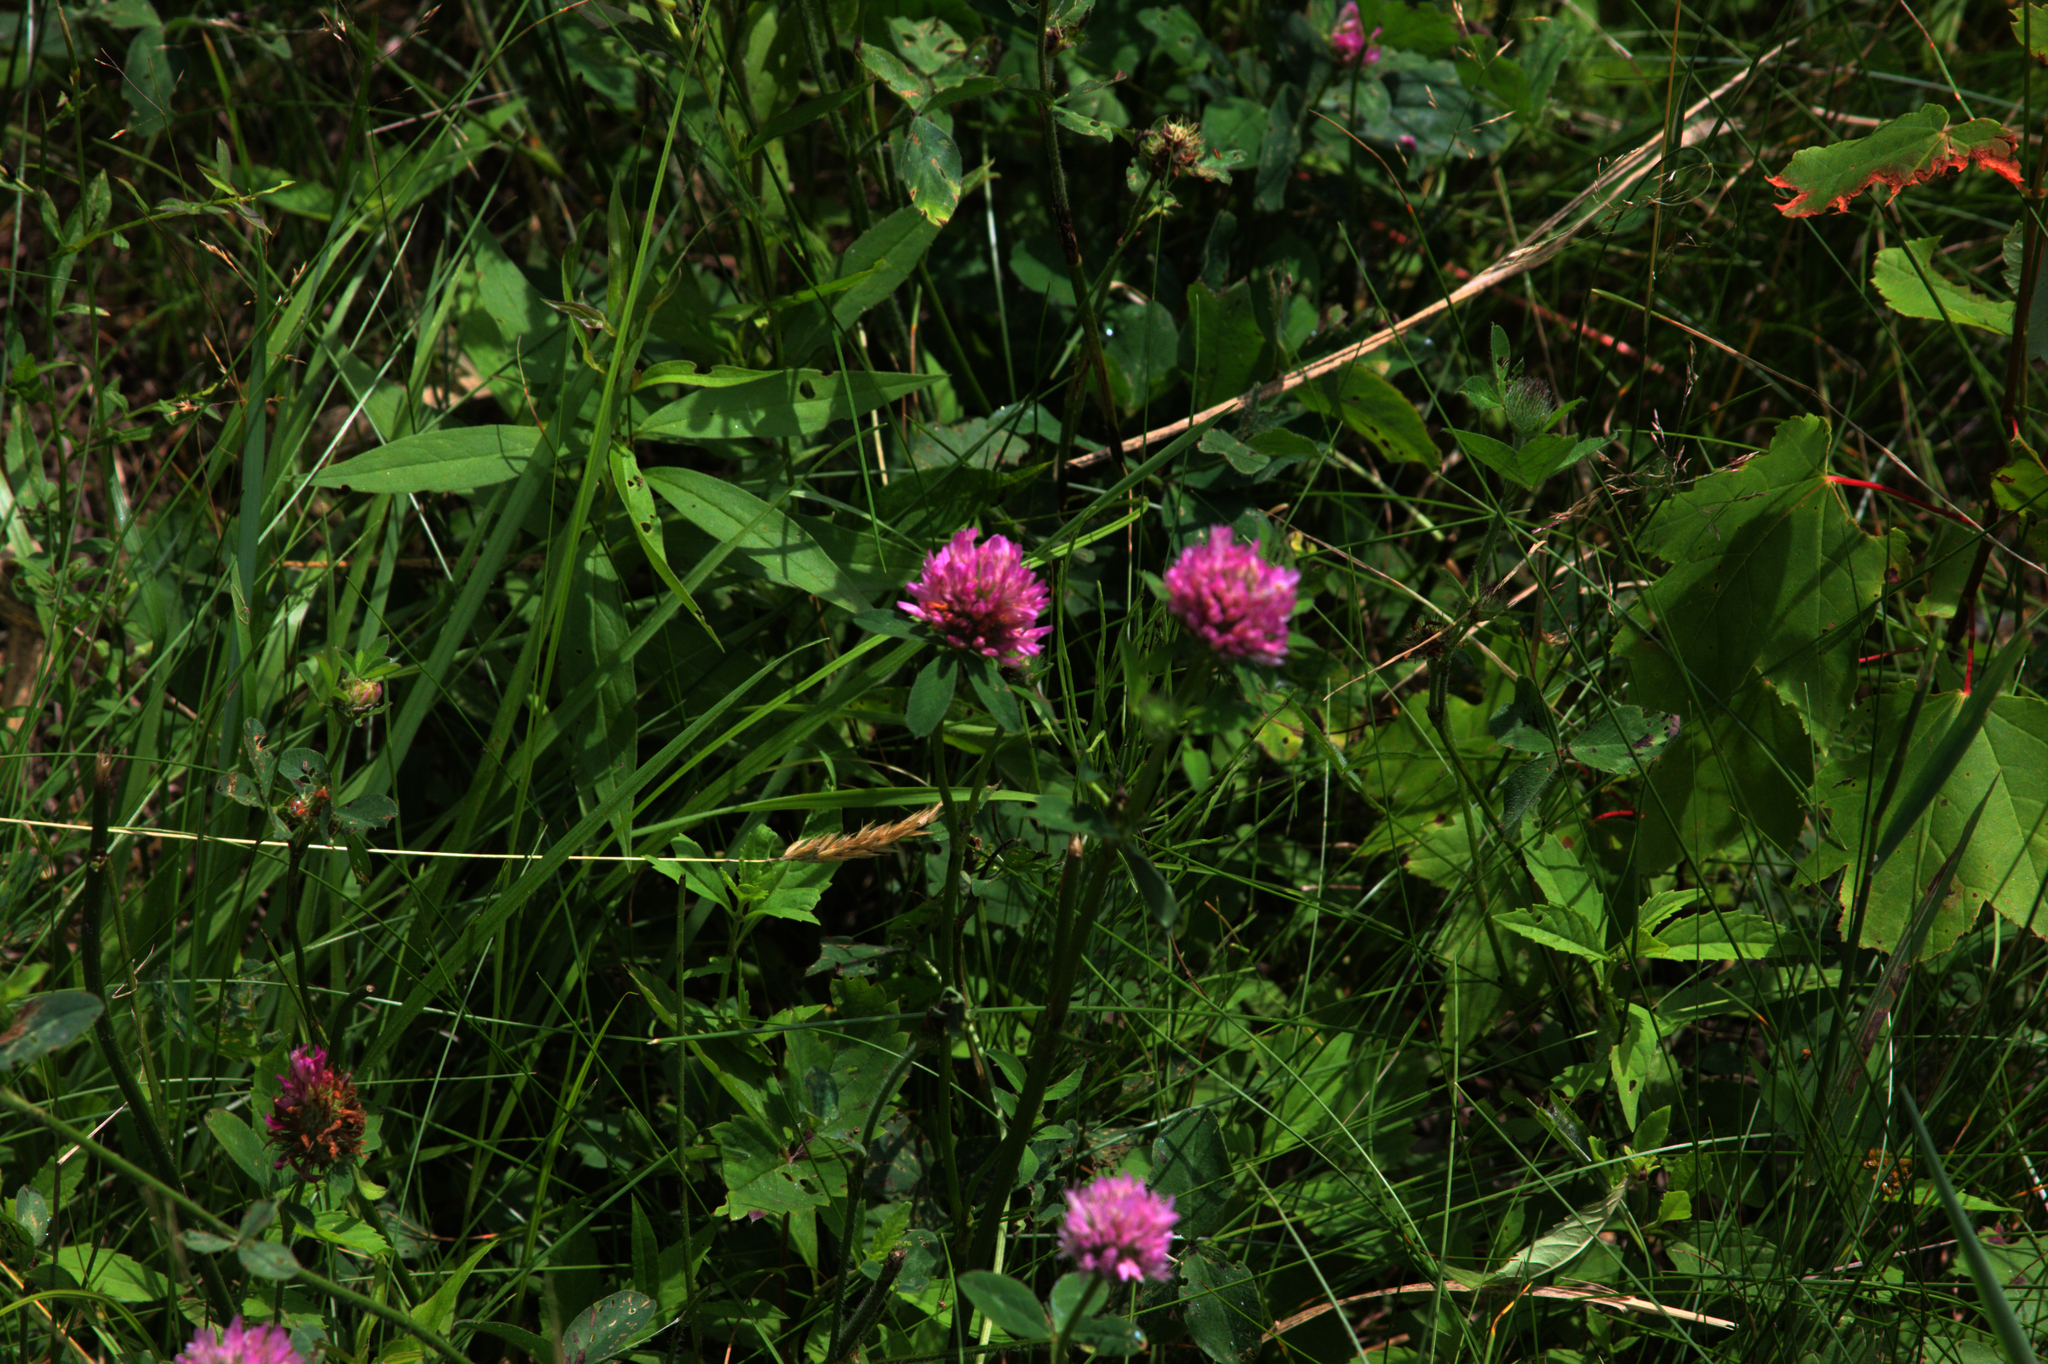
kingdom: Plantae
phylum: Tracheophyta
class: Magnoliopsida
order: Fabales
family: Fabaceae
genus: Trifolium
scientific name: Trifolium pratense
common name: Red clover
